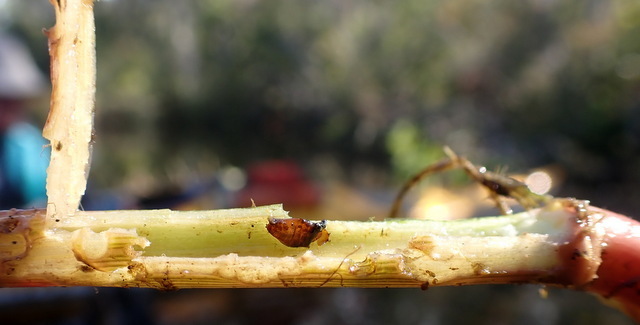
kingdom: Animalia
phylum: Arthropoda
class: Insecta
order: Coleoptera
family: Chrysomelidae
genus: Agasicles
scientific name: Agasicles hygrophila
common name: Alligatorweed flea beetle
